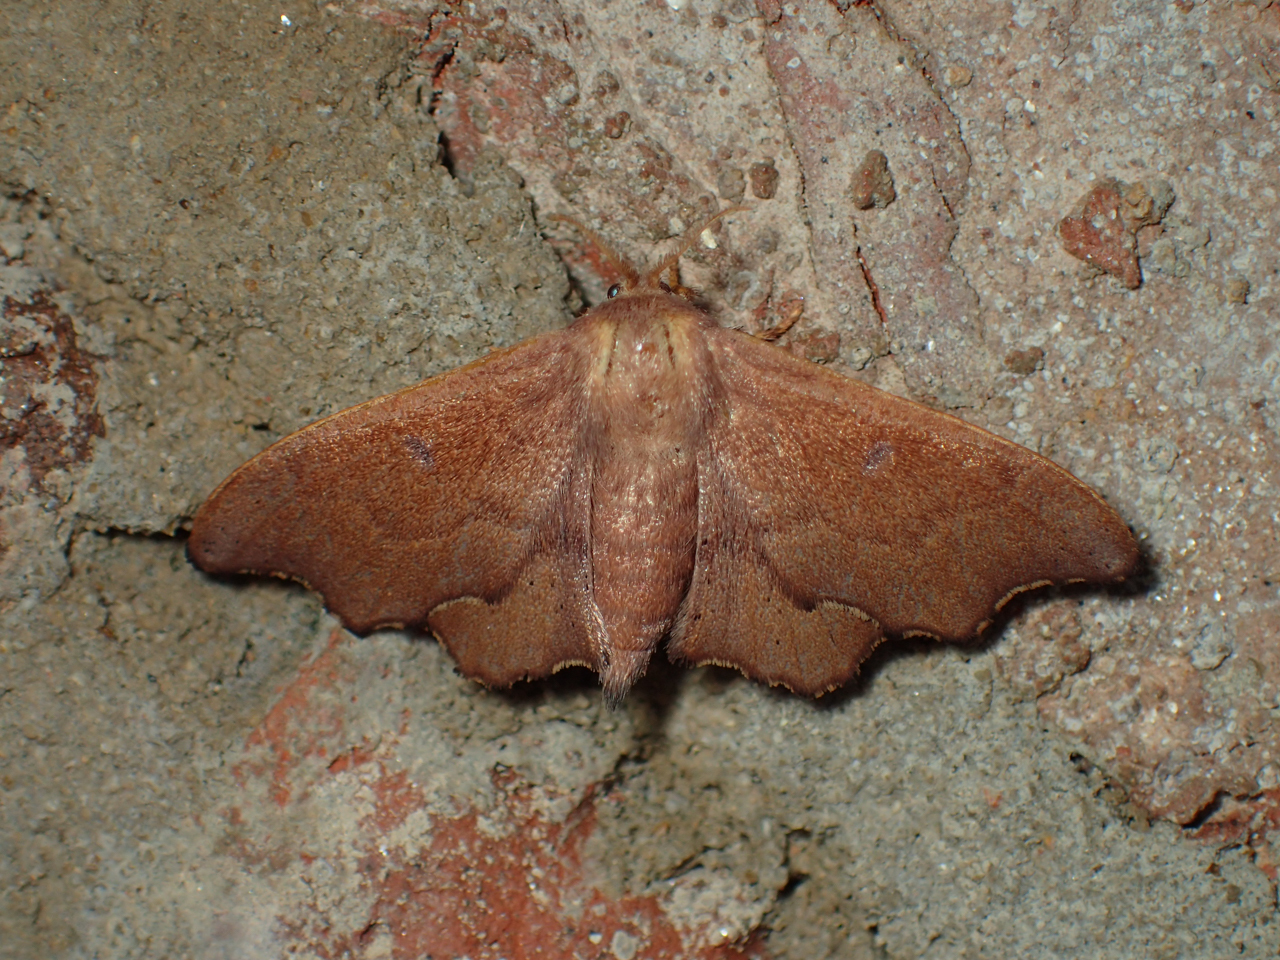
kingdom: Animalia
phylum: Arthropoda
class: Insecta
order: Lepidoptera
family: Mimallonidae
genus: Lacosoma
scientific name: Lacosoma chiridota
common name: Scalloped sack-bearer moth
